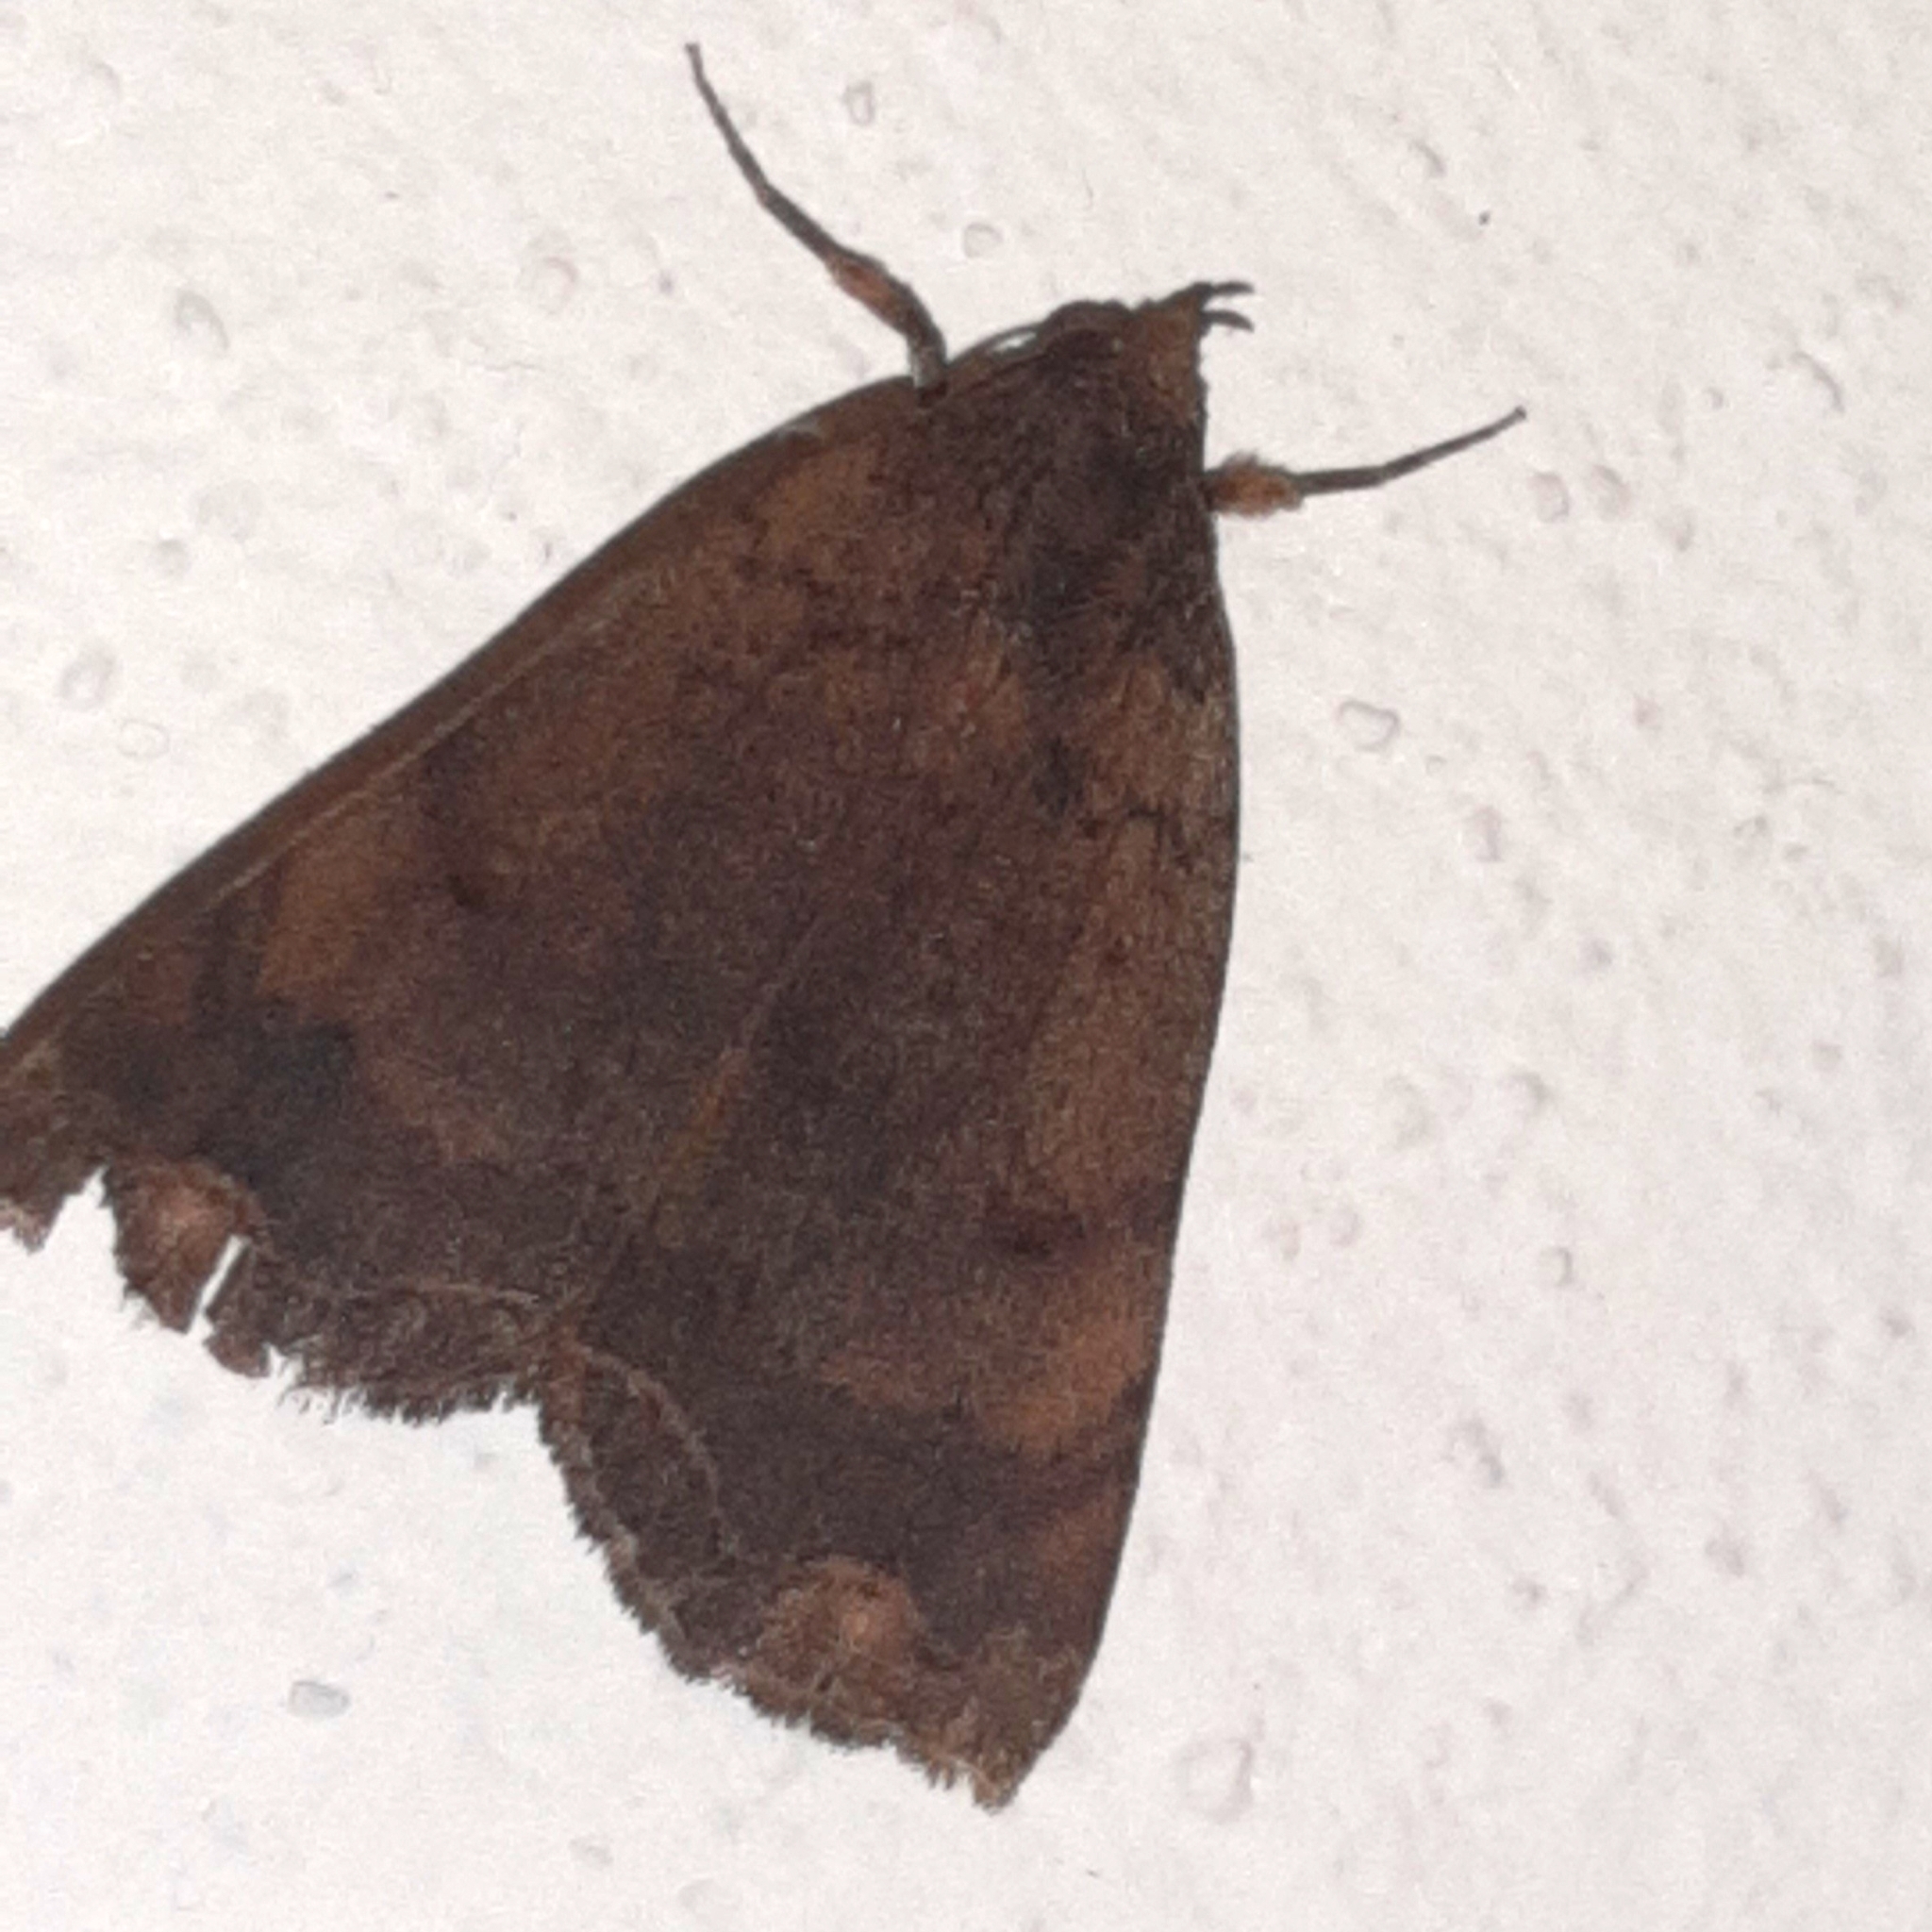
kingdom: Animalia
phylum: Arthropoda
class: Insecta
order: Lepidoptera
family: Erebidae
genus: Pyrgion
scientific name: Pyrgion repanda
